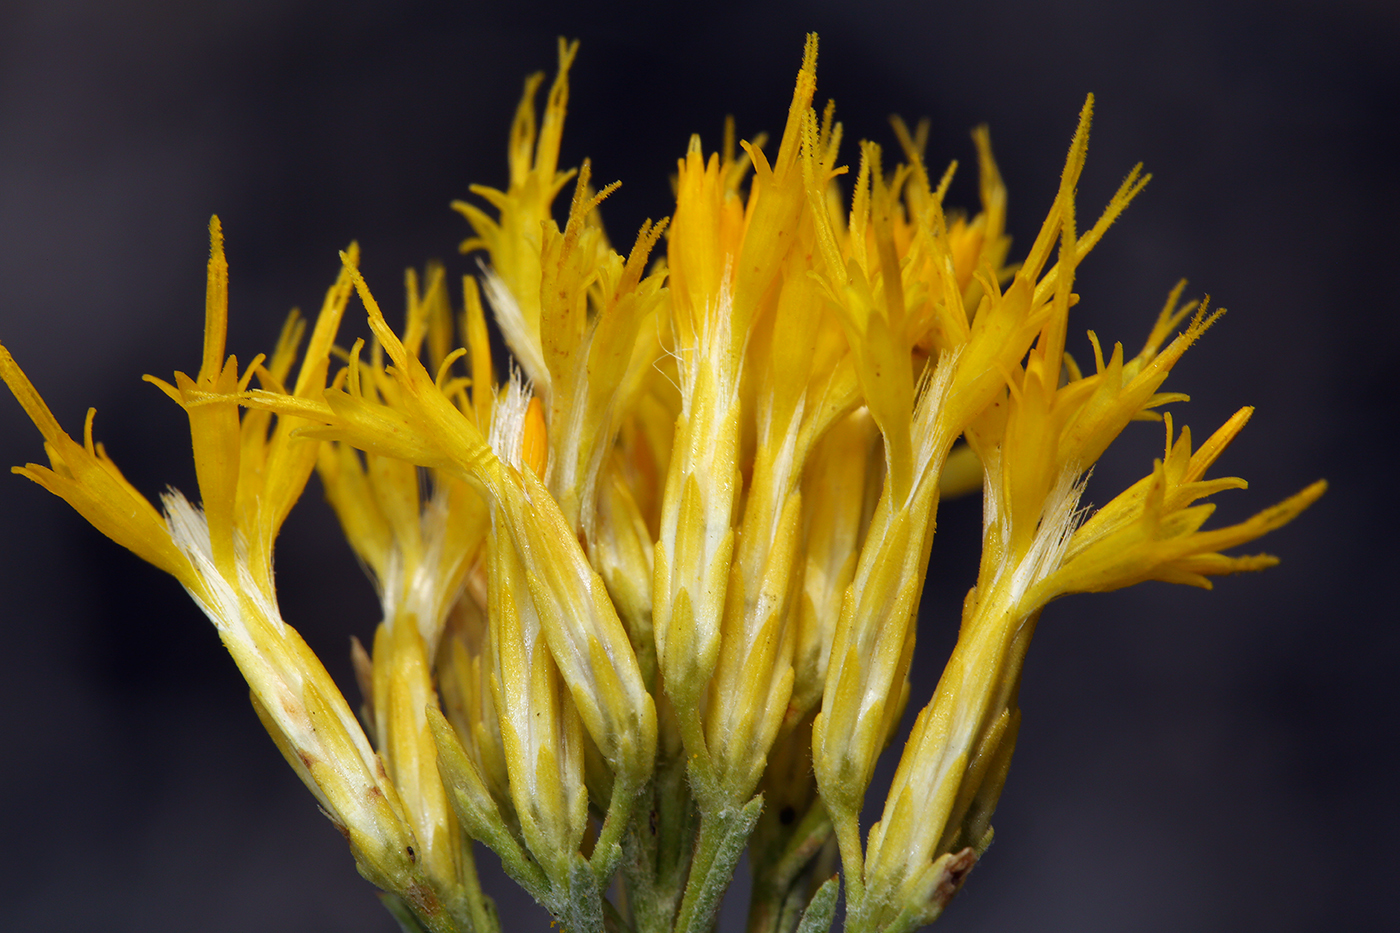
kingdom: Plantae
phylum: Tracheophyta
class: Magnoliopsida
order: Asterales
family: Asteraceae
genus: Ericameria
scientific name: Ericameria nauseosa
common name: Rubber rabbitbrush
